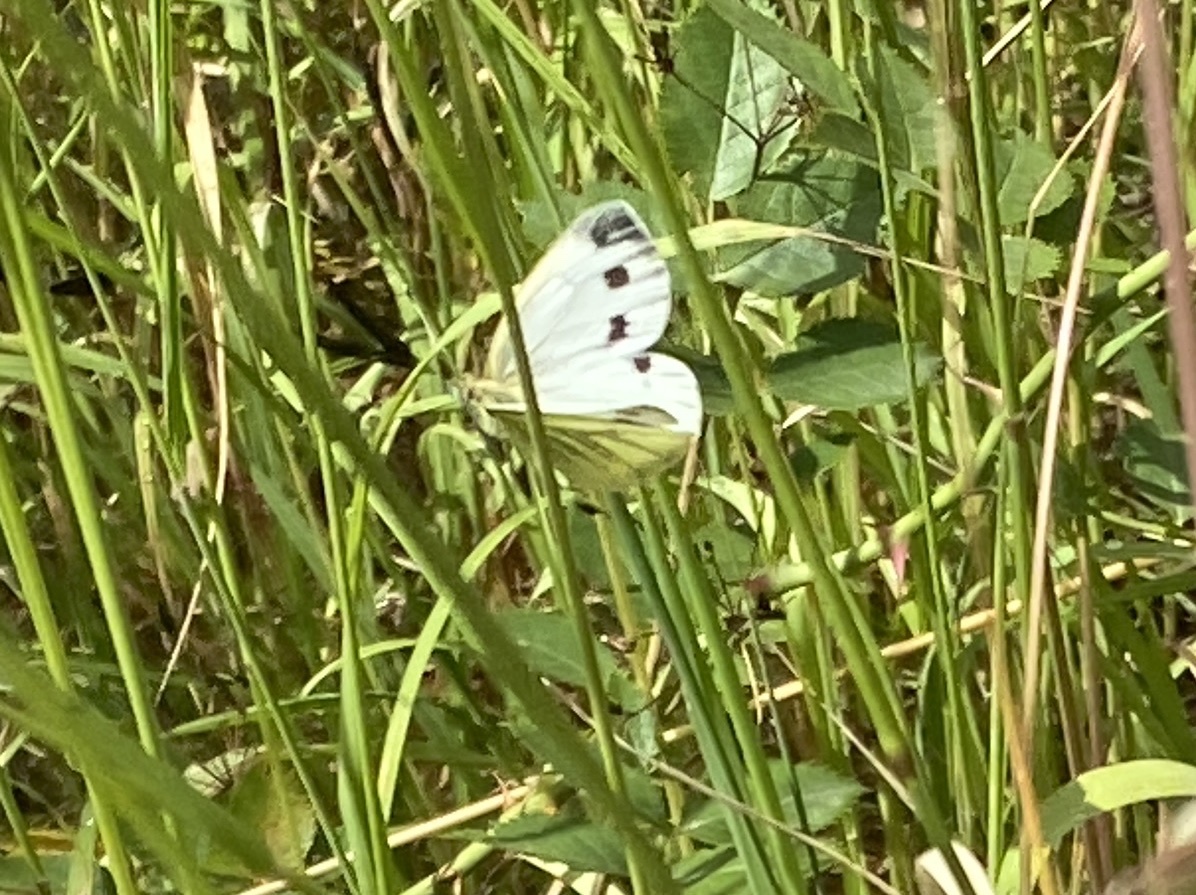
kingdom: Animalia
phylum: Arthropoda
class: Insecta
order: Lepidoptera
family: Pieridae
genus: Pieris
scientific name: Pieris napi
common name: Green-veined white
